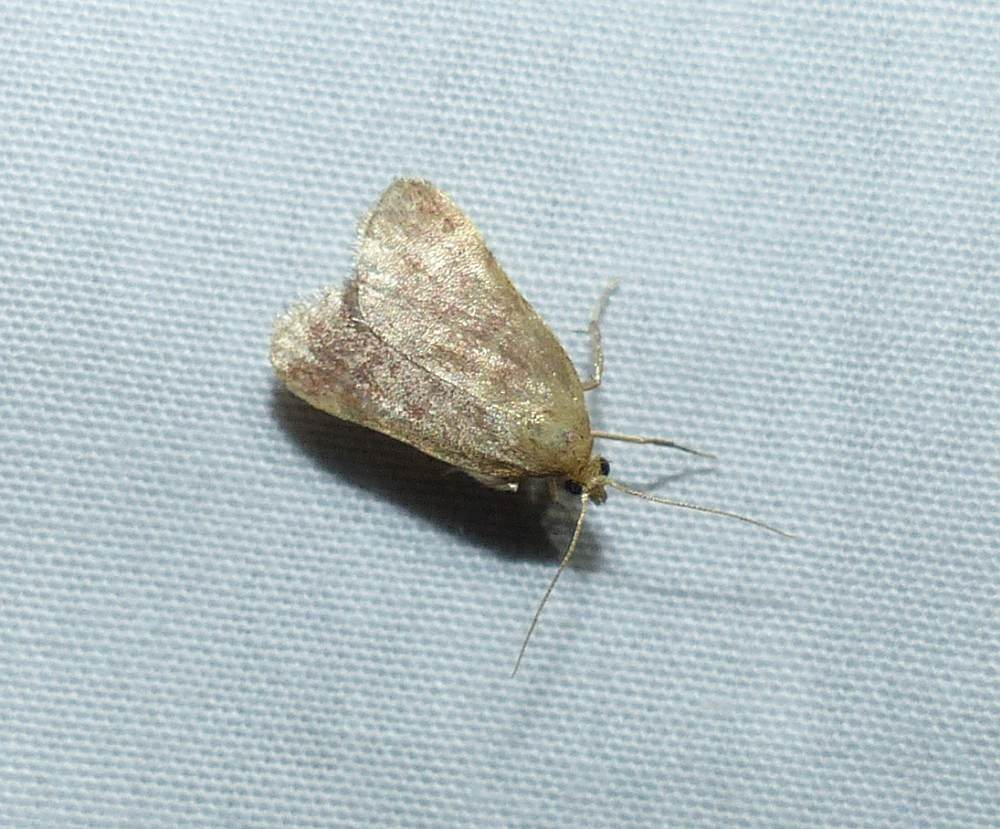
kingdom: Animalia
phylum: Arthropoda
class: Insecta
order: Lepidoptera
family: Pyralidae
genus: Condylolomia
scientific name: Condylolomia participialis
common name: Drab condylolomia moth
